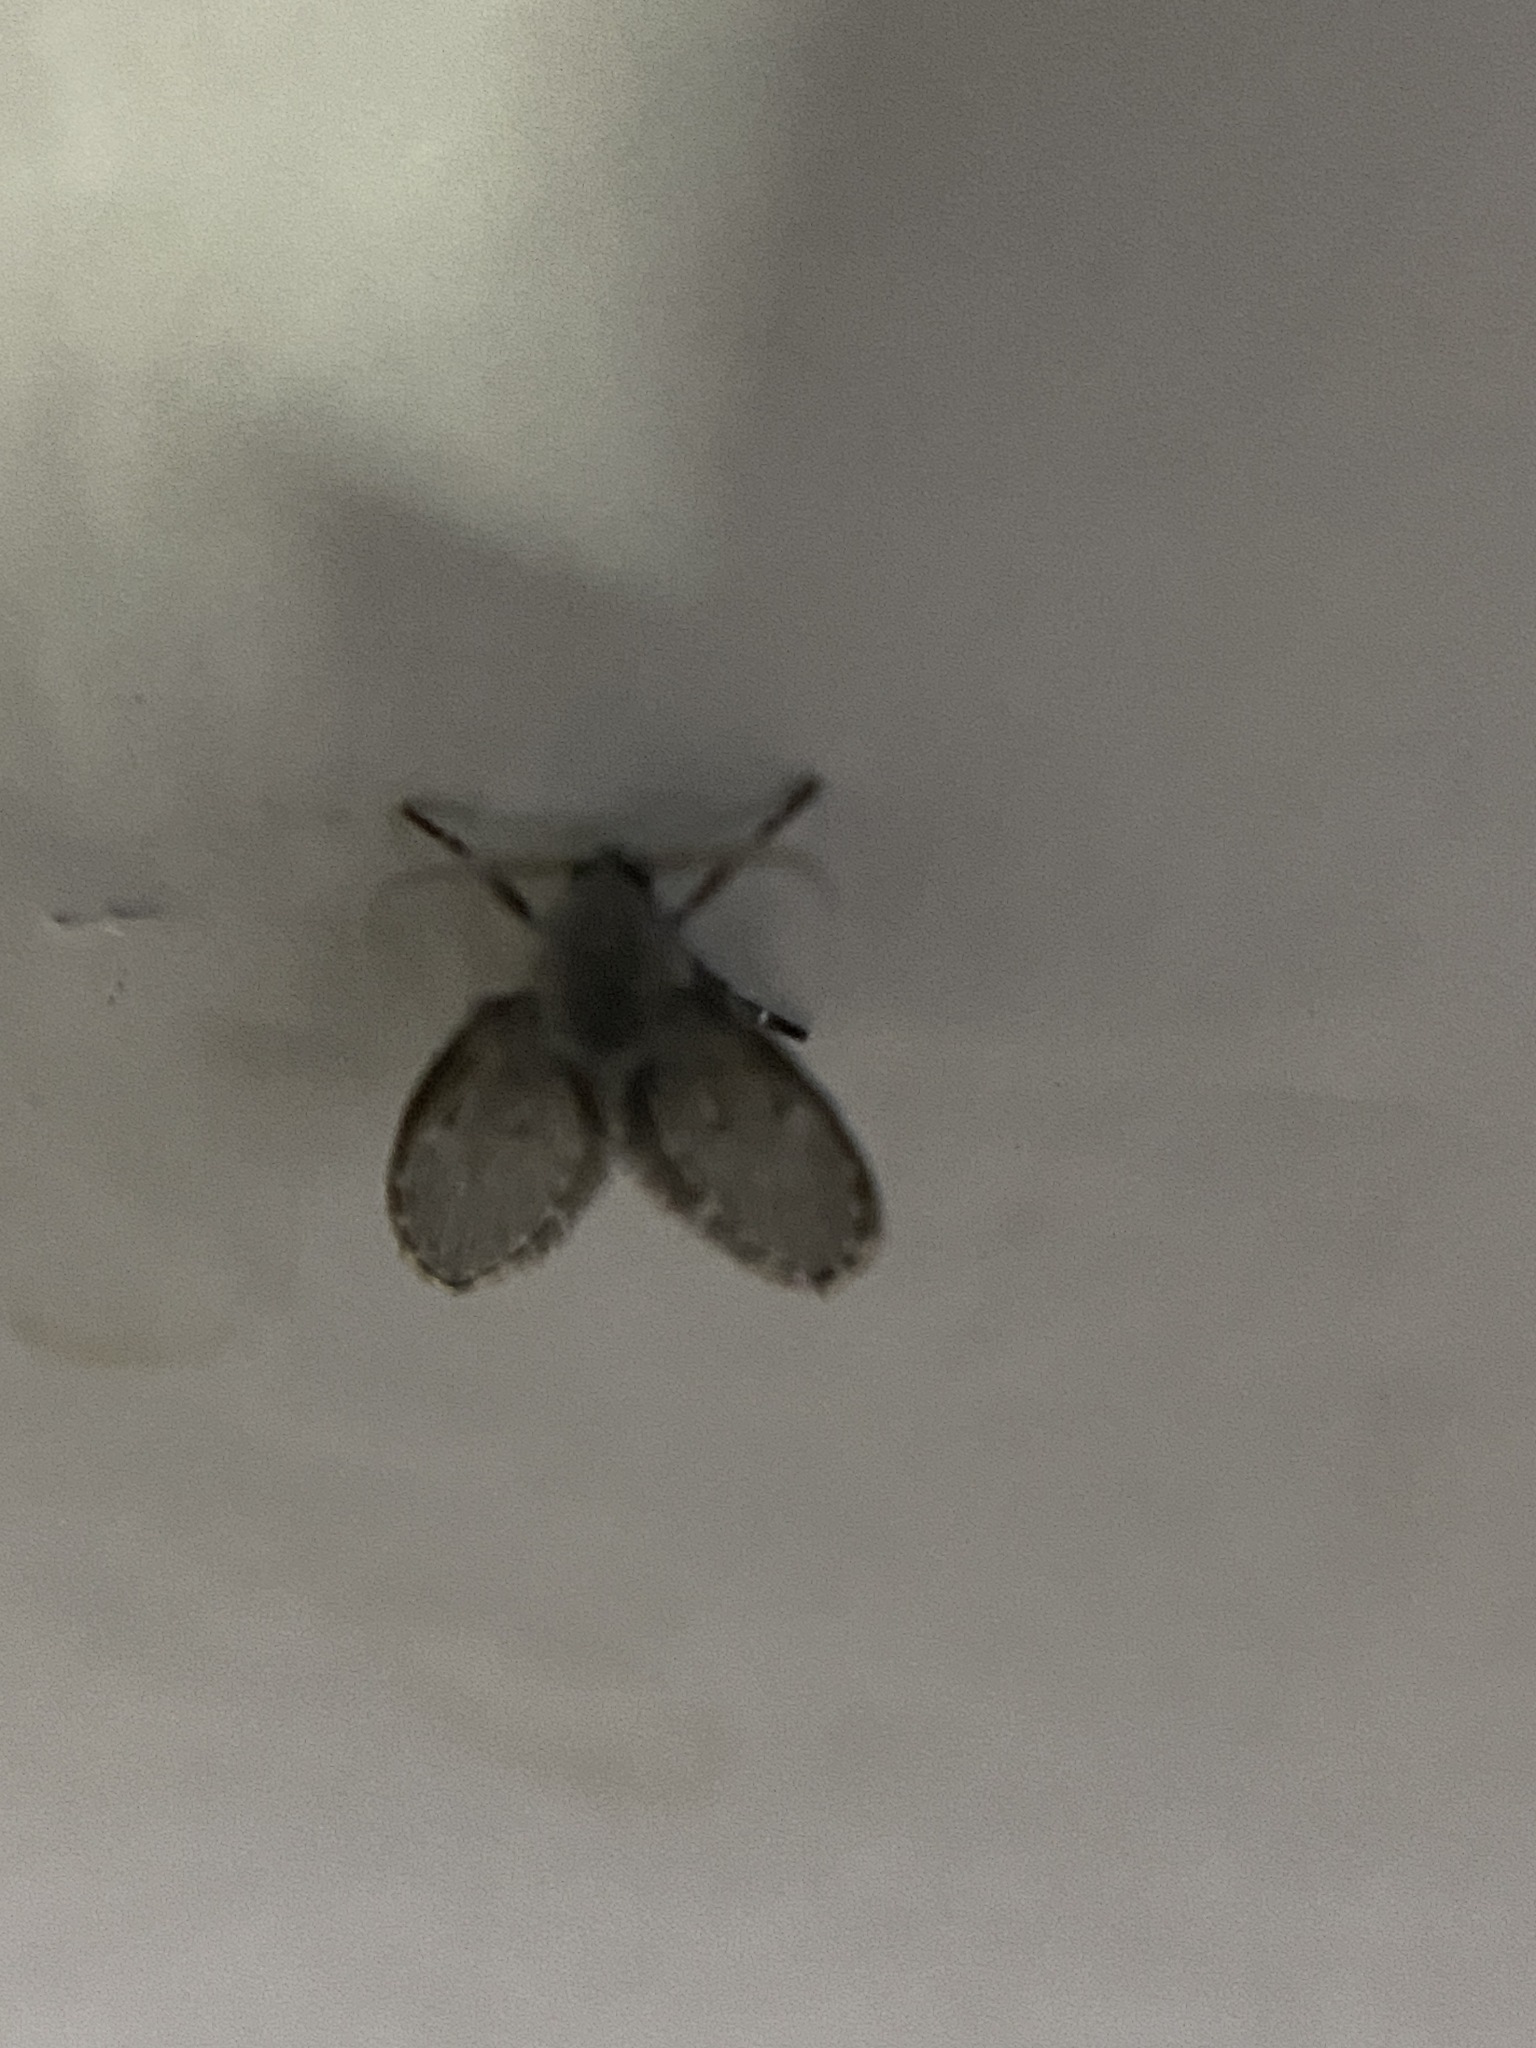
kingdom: Animalia
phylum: Arthropoda
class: Insecta
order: Diptera
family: Psychodidae
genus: Clogmia
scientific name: Clogmia albipunctatus
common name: White-spotted moth fly
